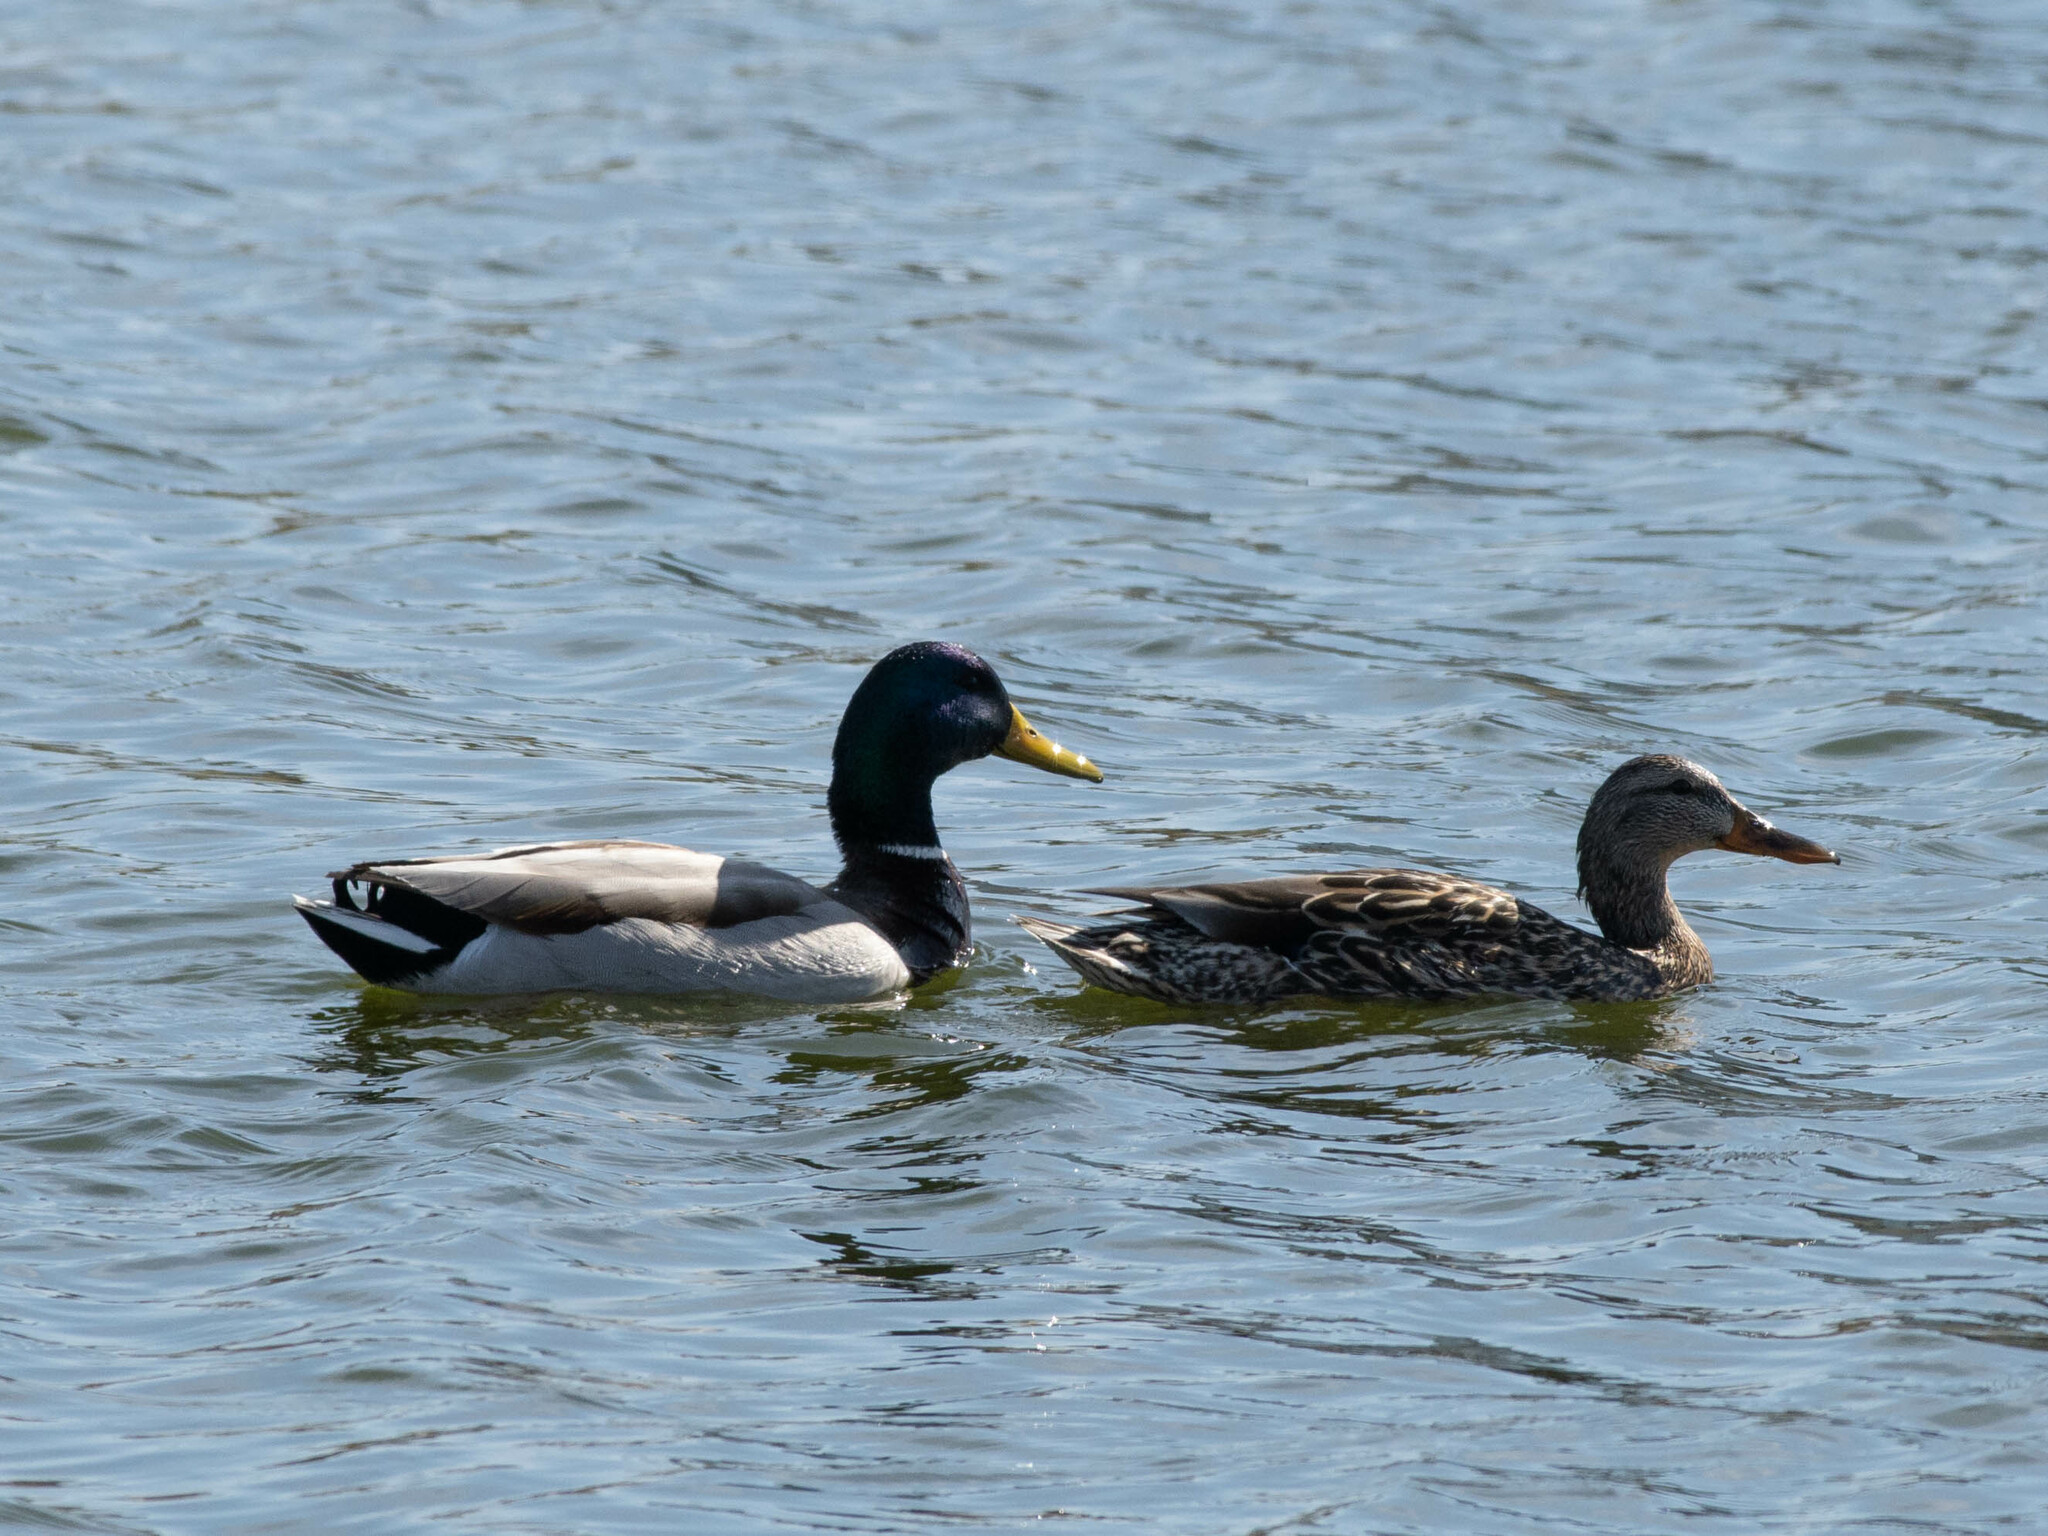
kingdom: Animalia
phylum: Chordata
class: Aves
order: Anseriformes
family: Anatidae
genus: Anas
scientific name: Anas platyrhynchos
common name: Mallard
